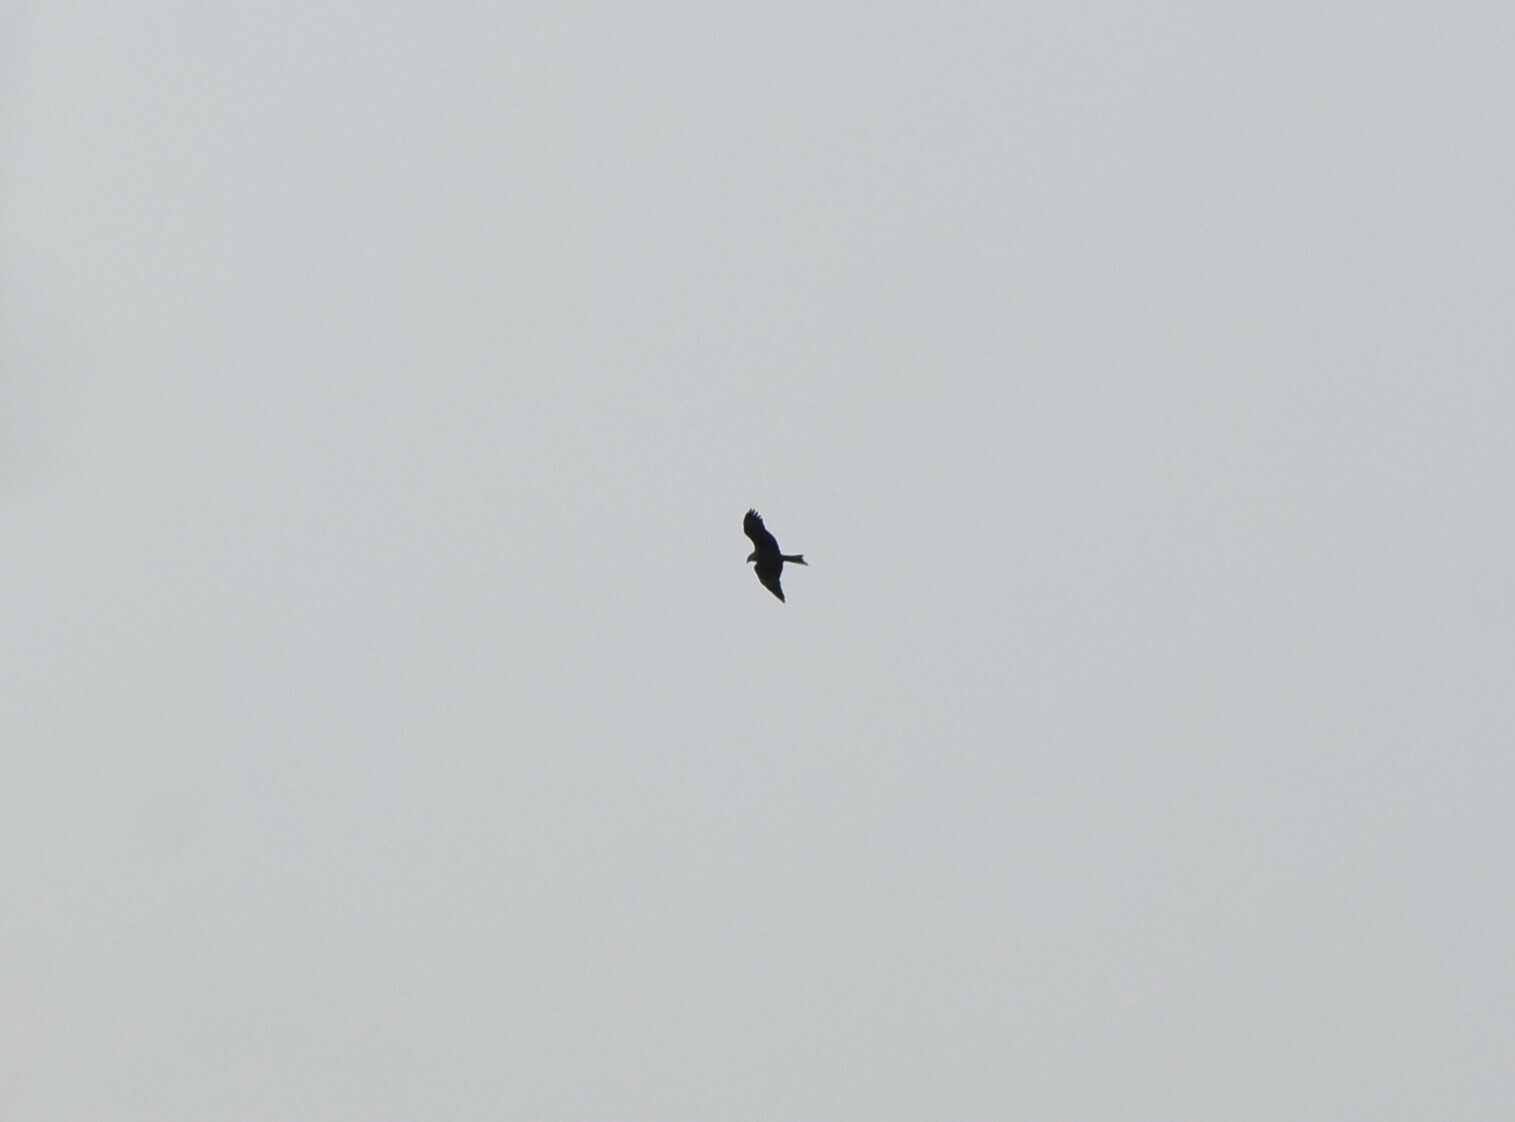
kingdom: Animalia
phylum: Chordata
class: Aves
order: Accipitriformes
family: Accipitridae
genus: Milvus
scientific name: Milvus migrans
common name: Black kite
